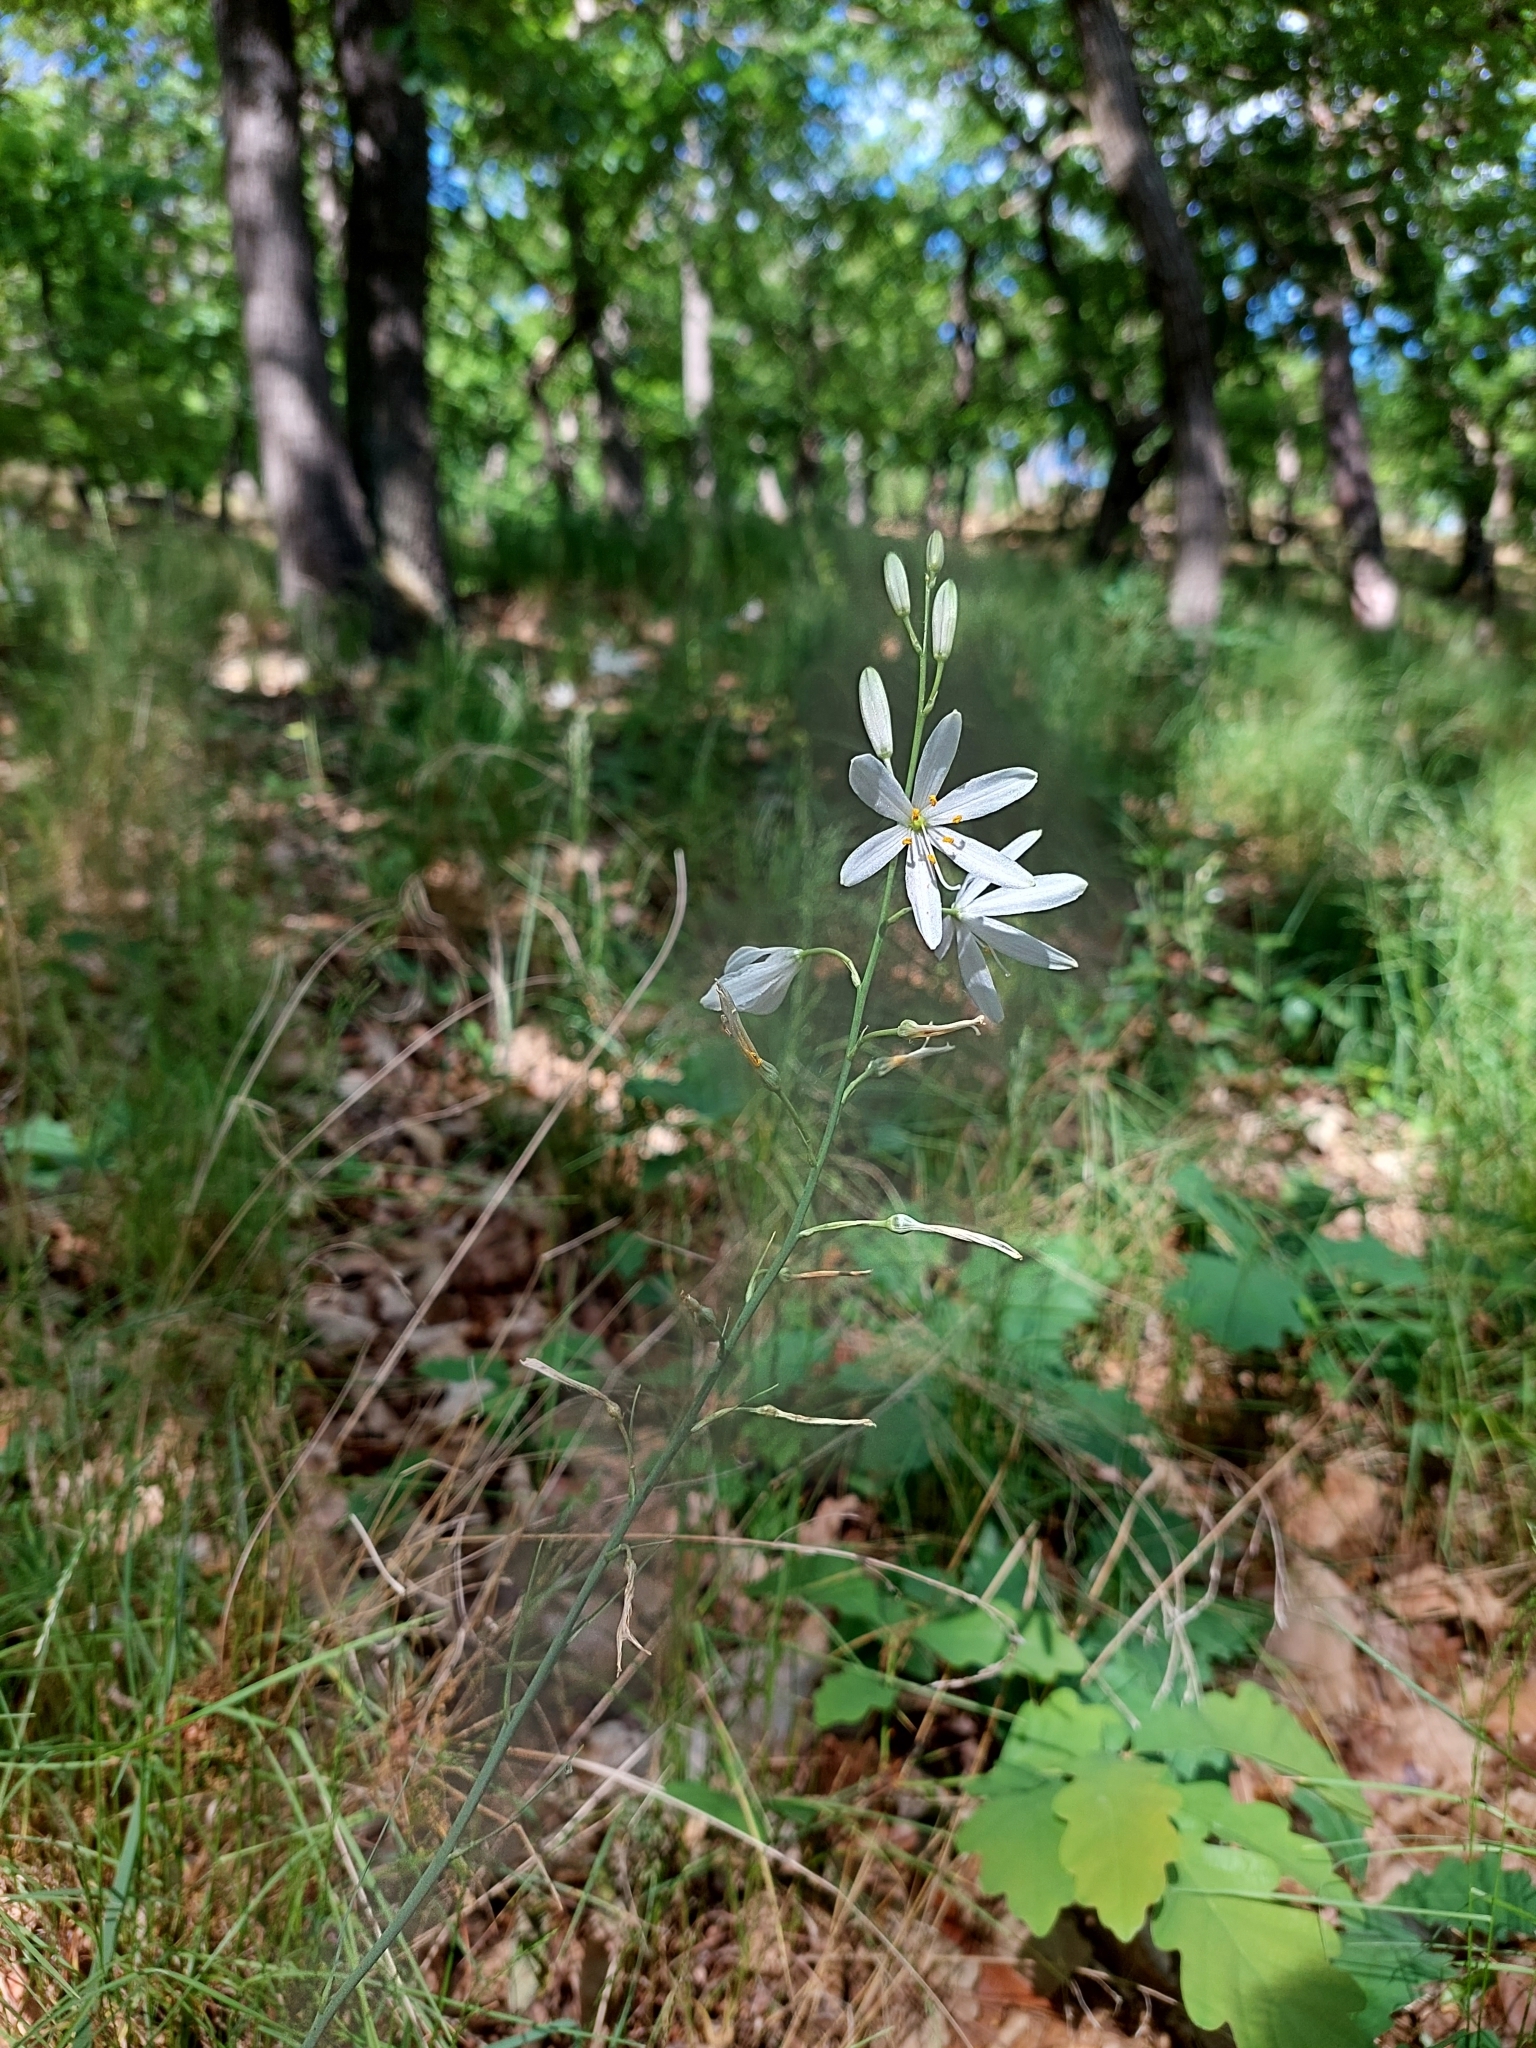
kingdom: Plantae
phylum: Tracheophyta
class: Liliopsida
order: Asparagales
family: Asparagaceae
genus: Anthericum
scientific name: Anthericum liliago
